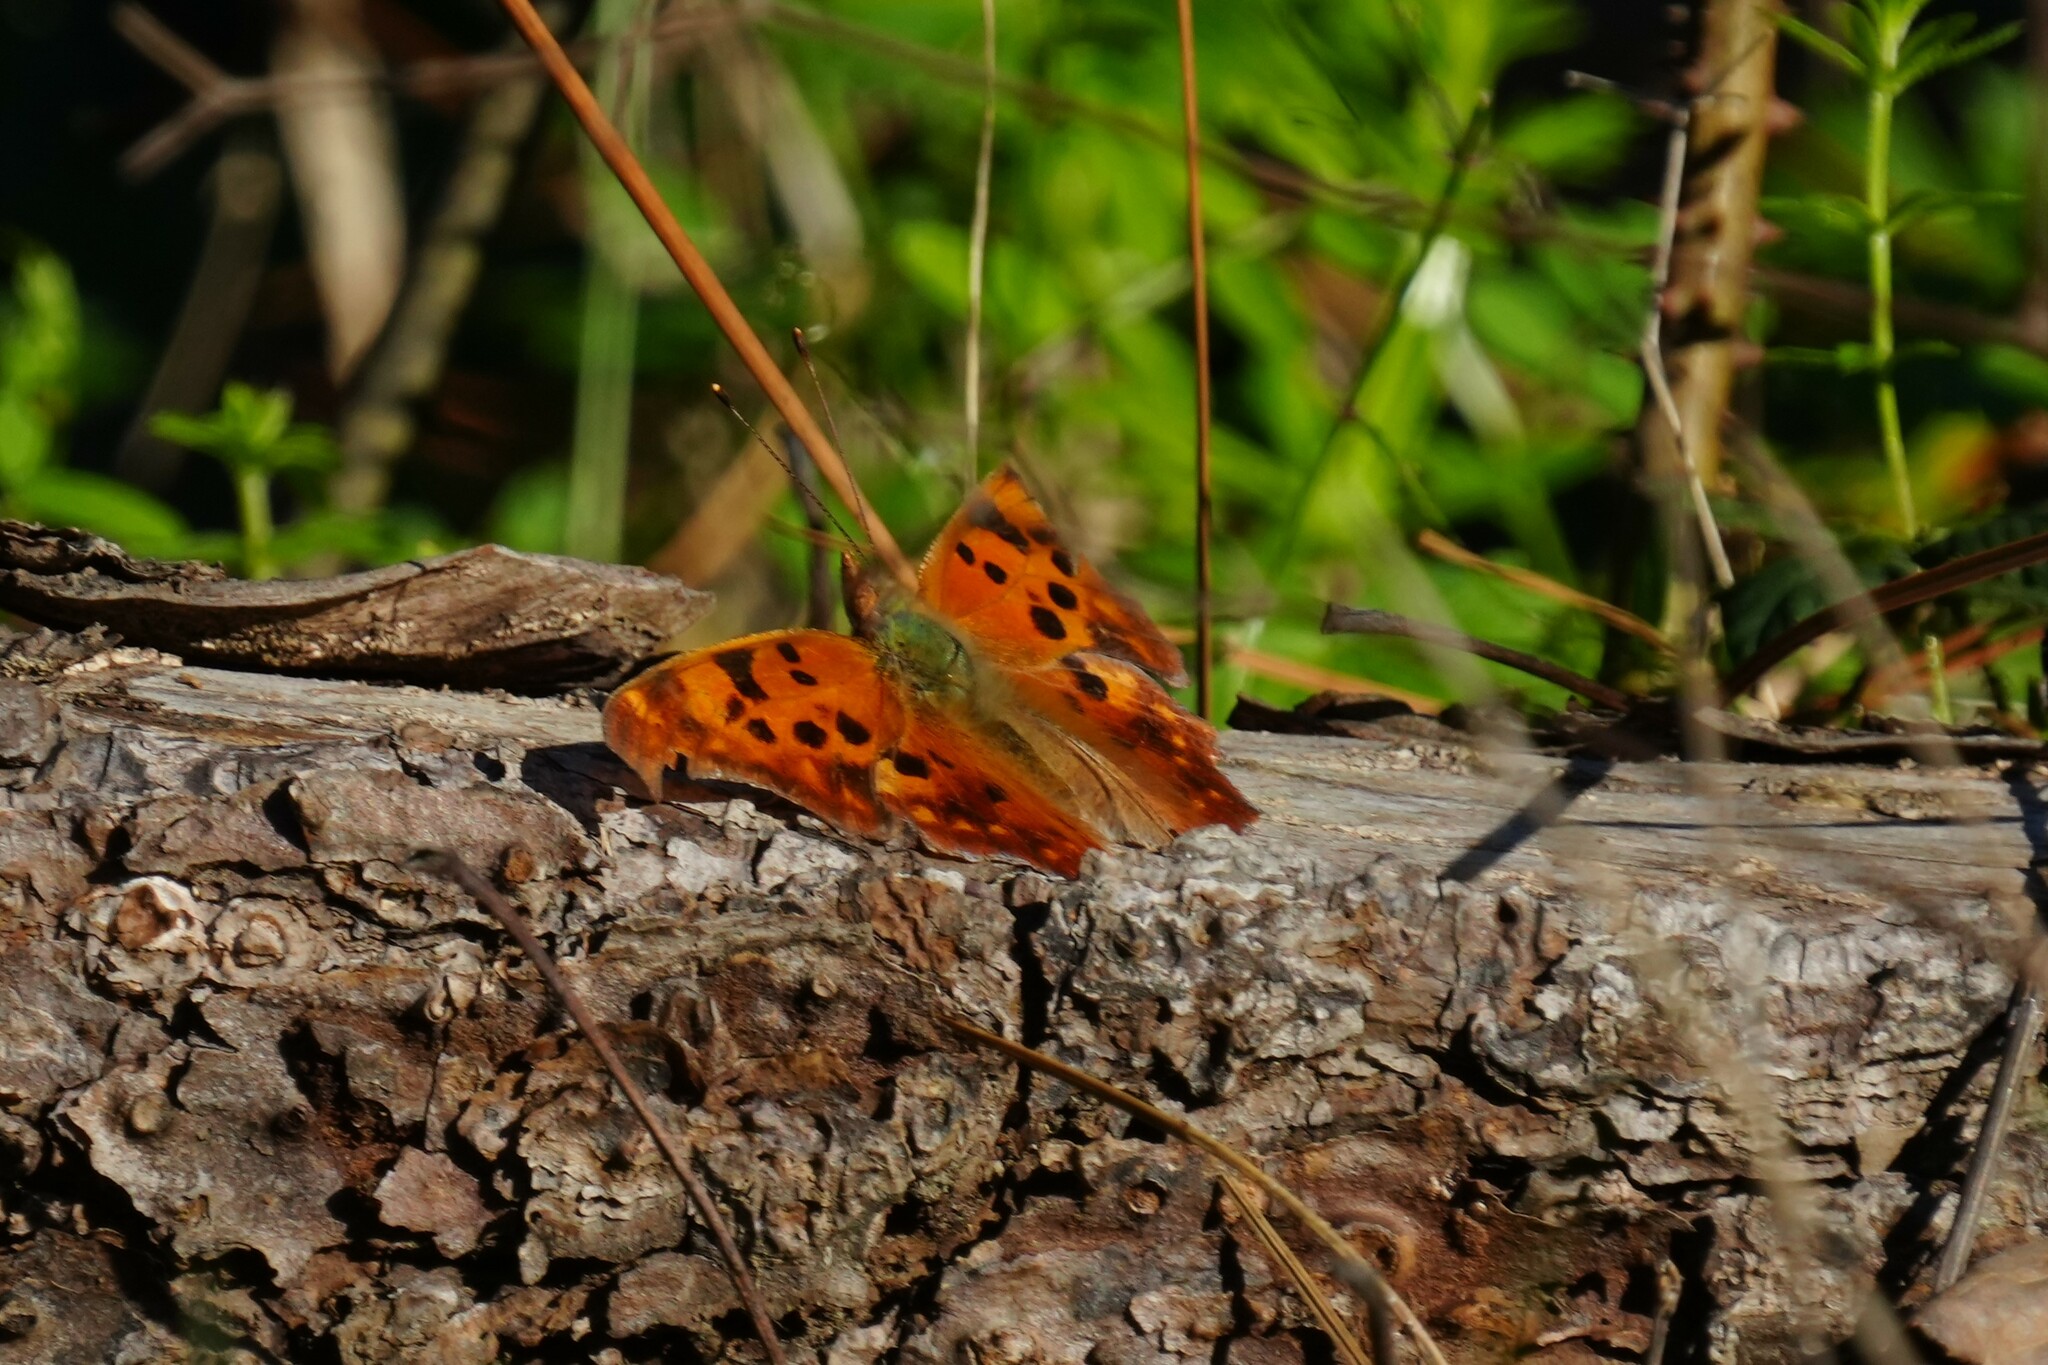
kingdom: Animalia
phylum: Arthropoda
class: Insecta
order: Lepidoptera
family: Nymphalidae
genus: Polygonia
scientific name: Polygonia interrogationis
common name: Question mark
